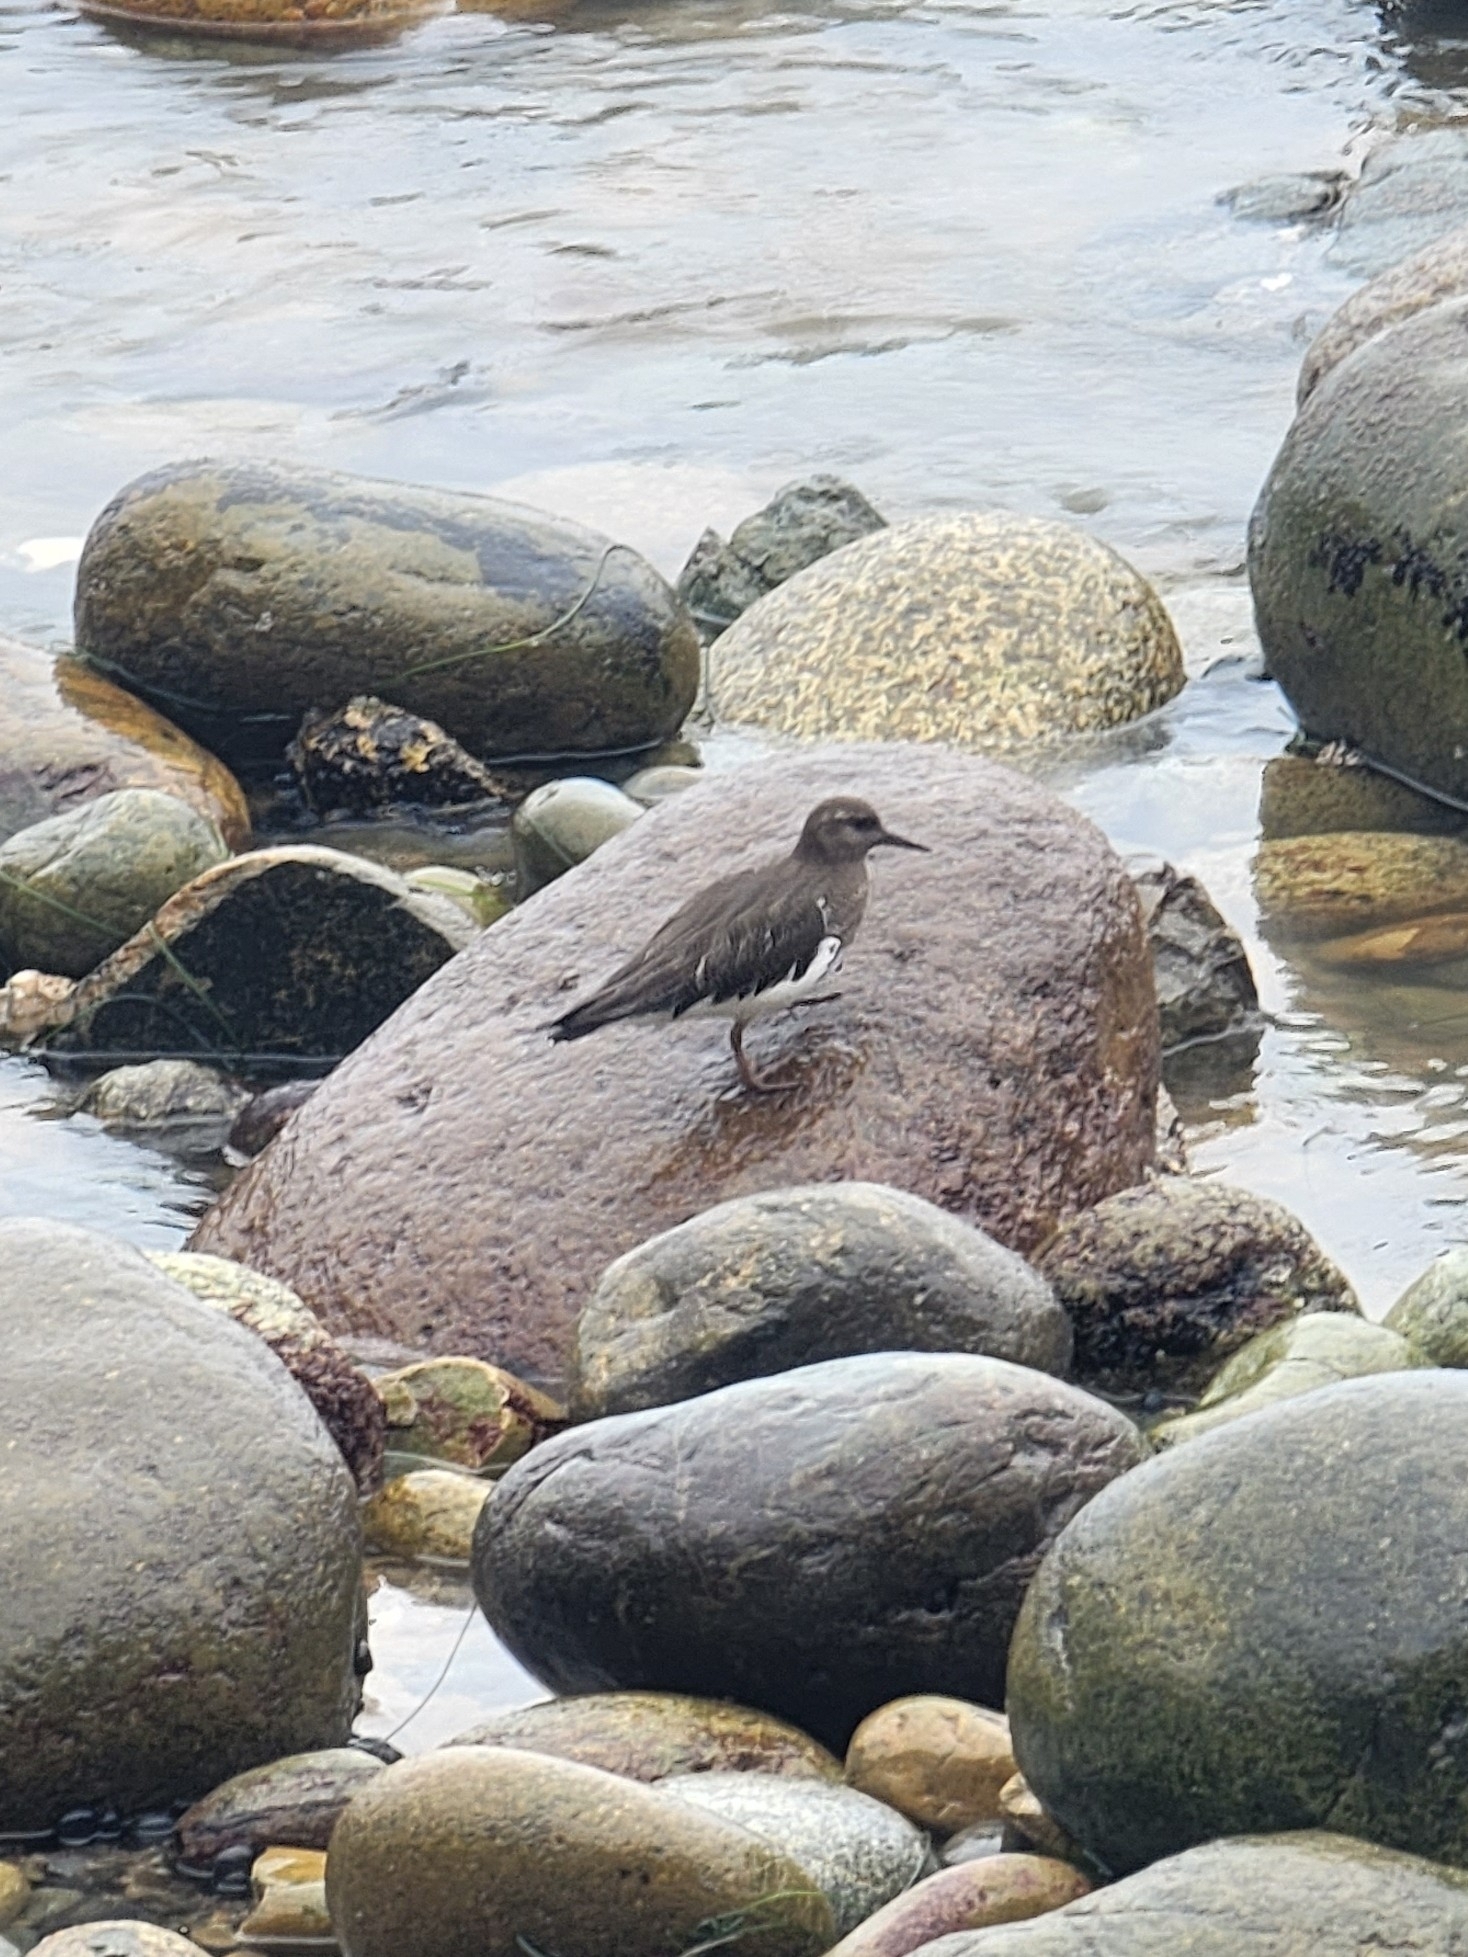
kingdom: Animalia
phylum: Chordata
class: Aves
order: Charadriiformes
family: Scolopacidae
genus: Arenaria
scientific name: Arenaria melanocephala
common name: Black turnstone
